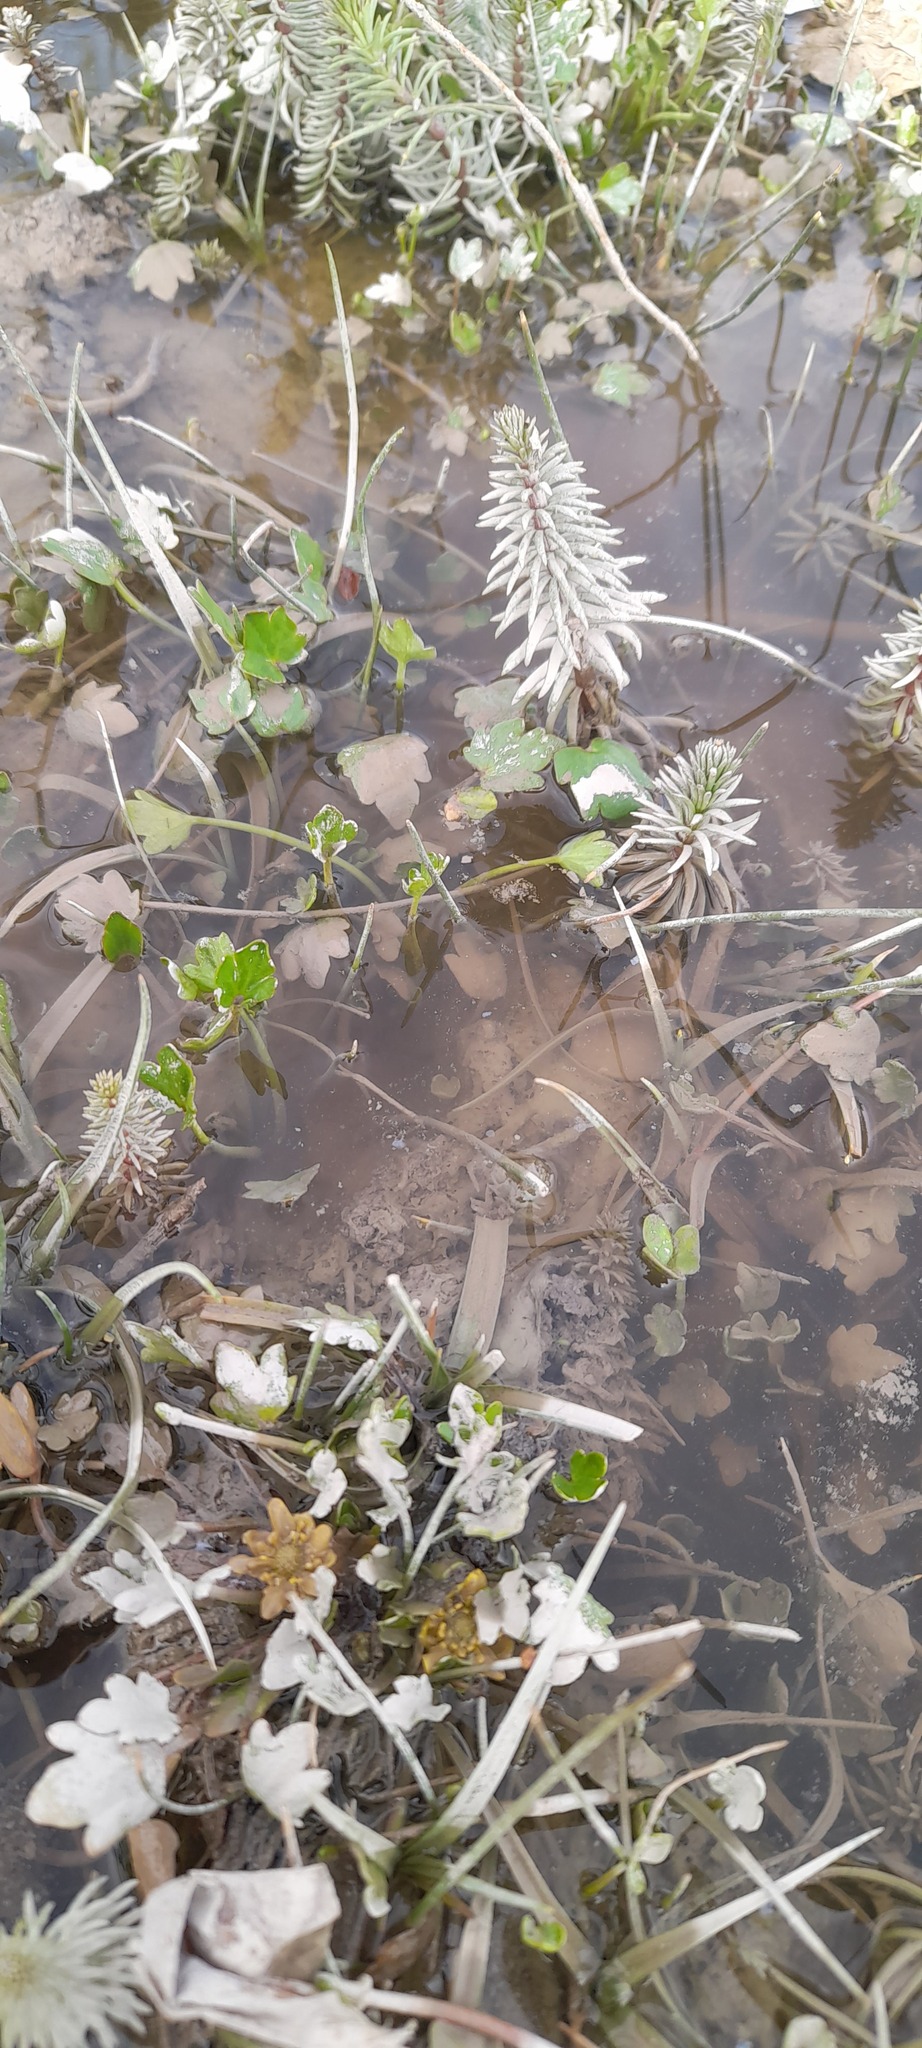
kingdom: Plantae
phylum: Tracheophyta
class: Magnoliopsida
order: Lamiales
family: Plantaginaceae
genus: Hippuris
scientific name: Hippuris vulgaris
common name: Mare's-tail
